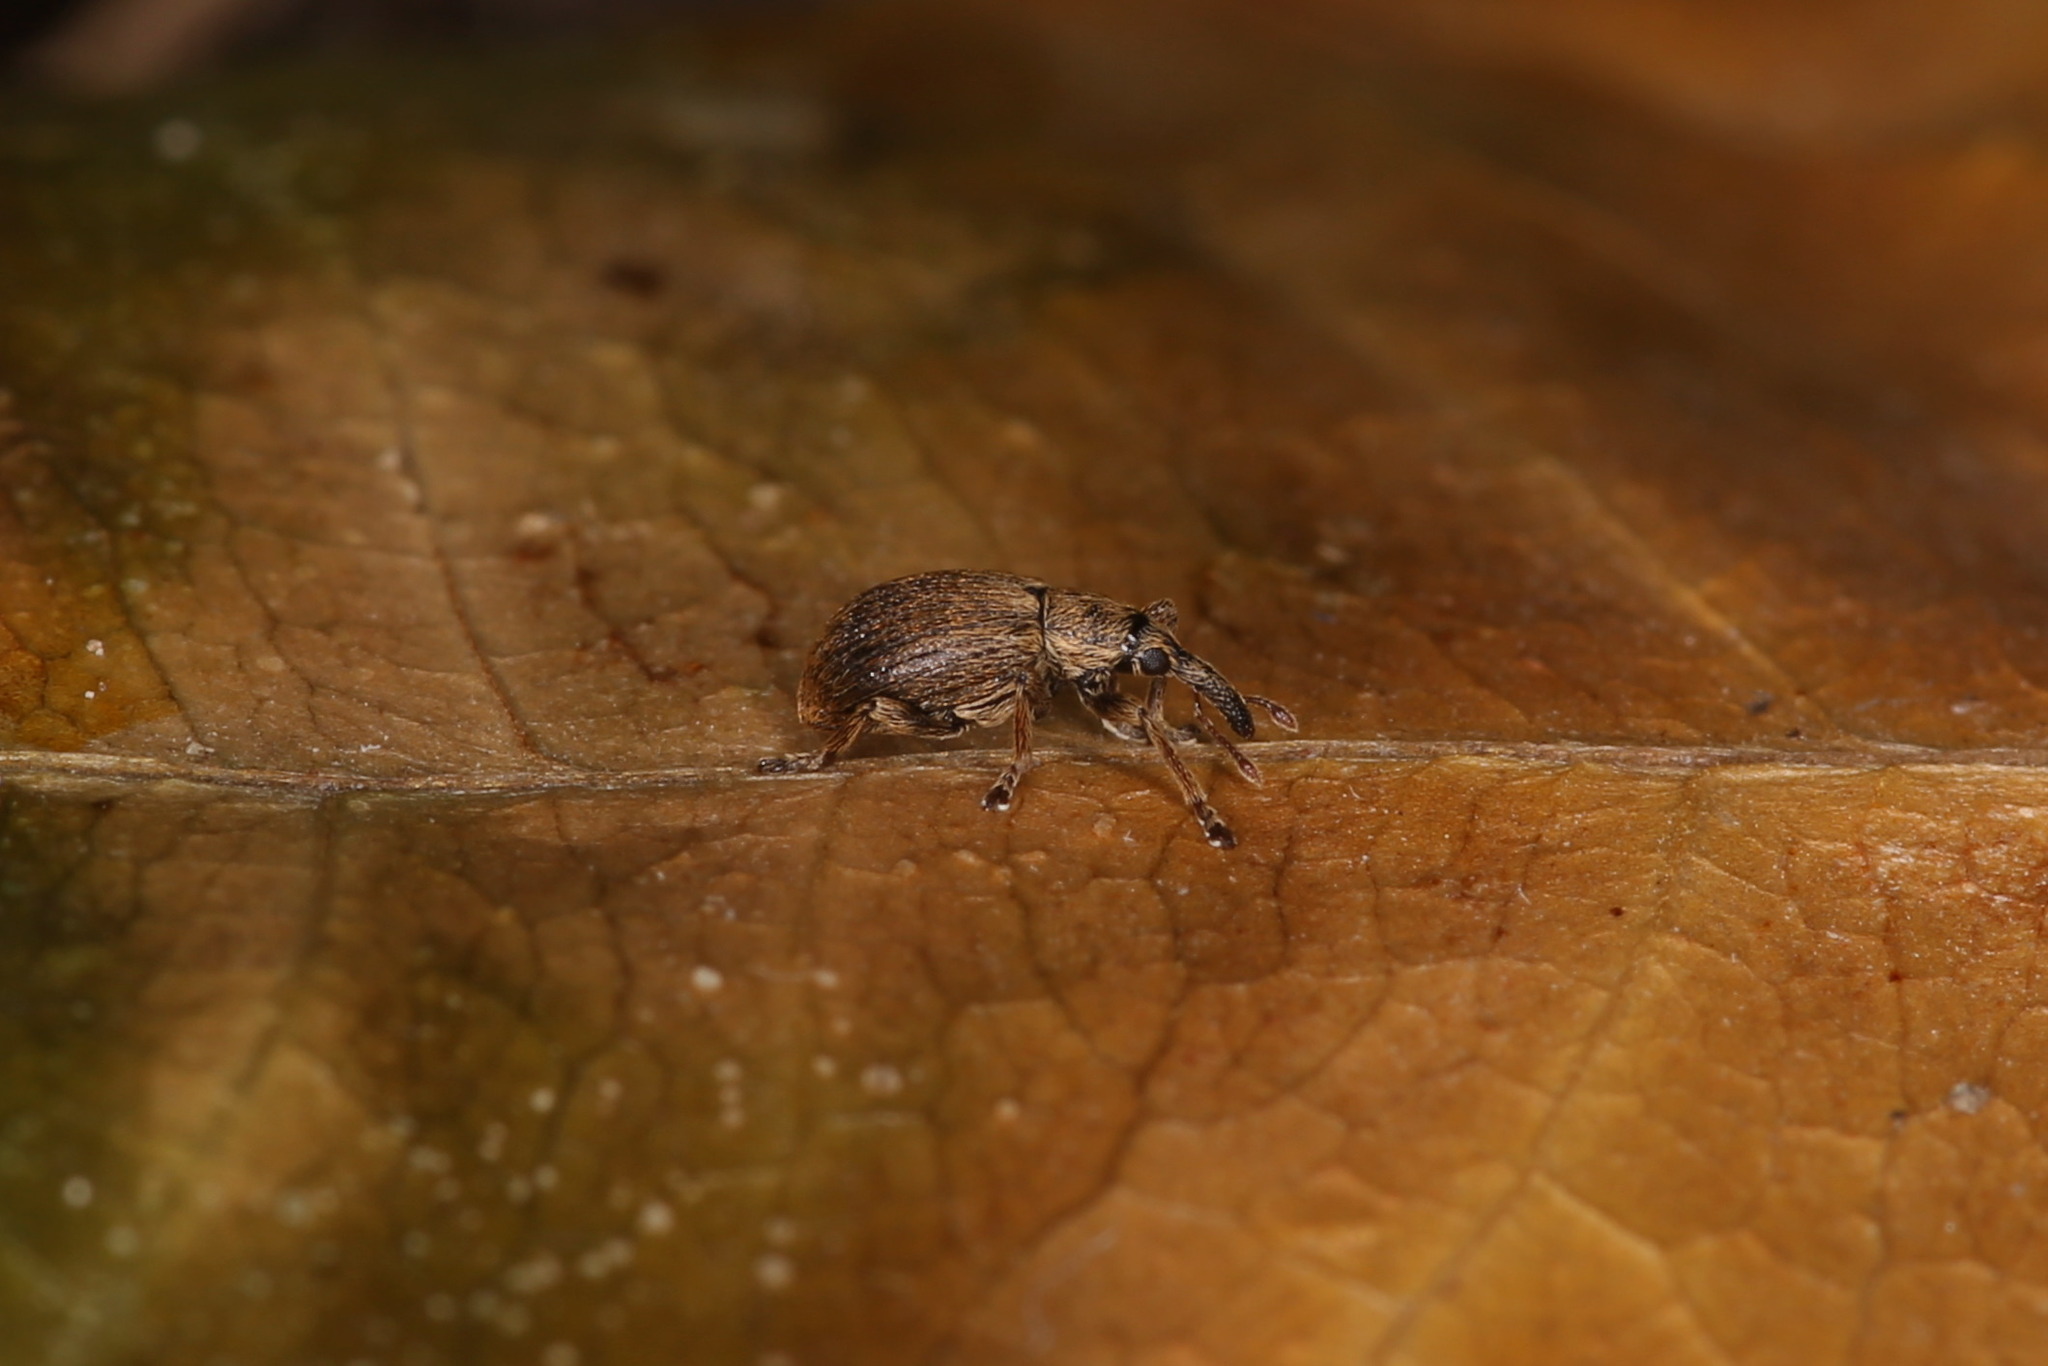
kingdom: Animalia
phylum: Arthropoda
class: Insecta
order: Coleoptera
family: Apionidae
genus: Trichopterapion
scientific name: Trichopterapion holosericeum
